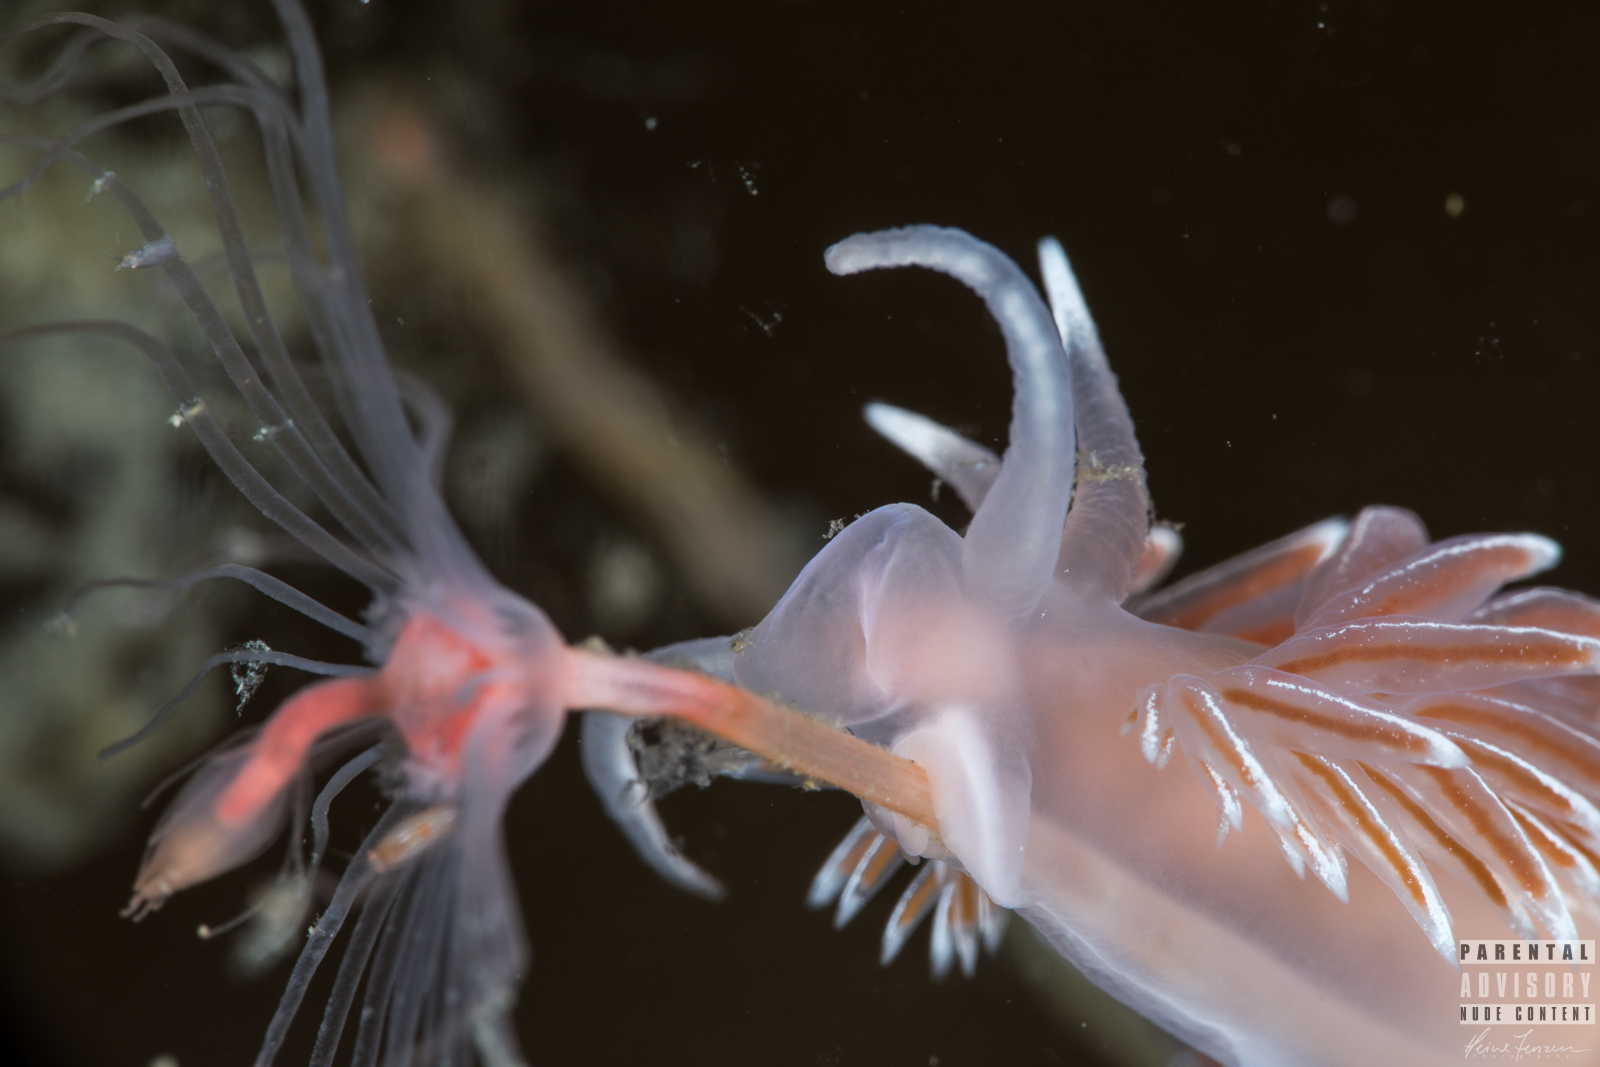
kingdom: Animalia
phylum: Mollusca
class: Gastropoda
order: Nudibranchia
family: Coryphellidae
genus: Coryphella
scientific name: Coryphella lineata
